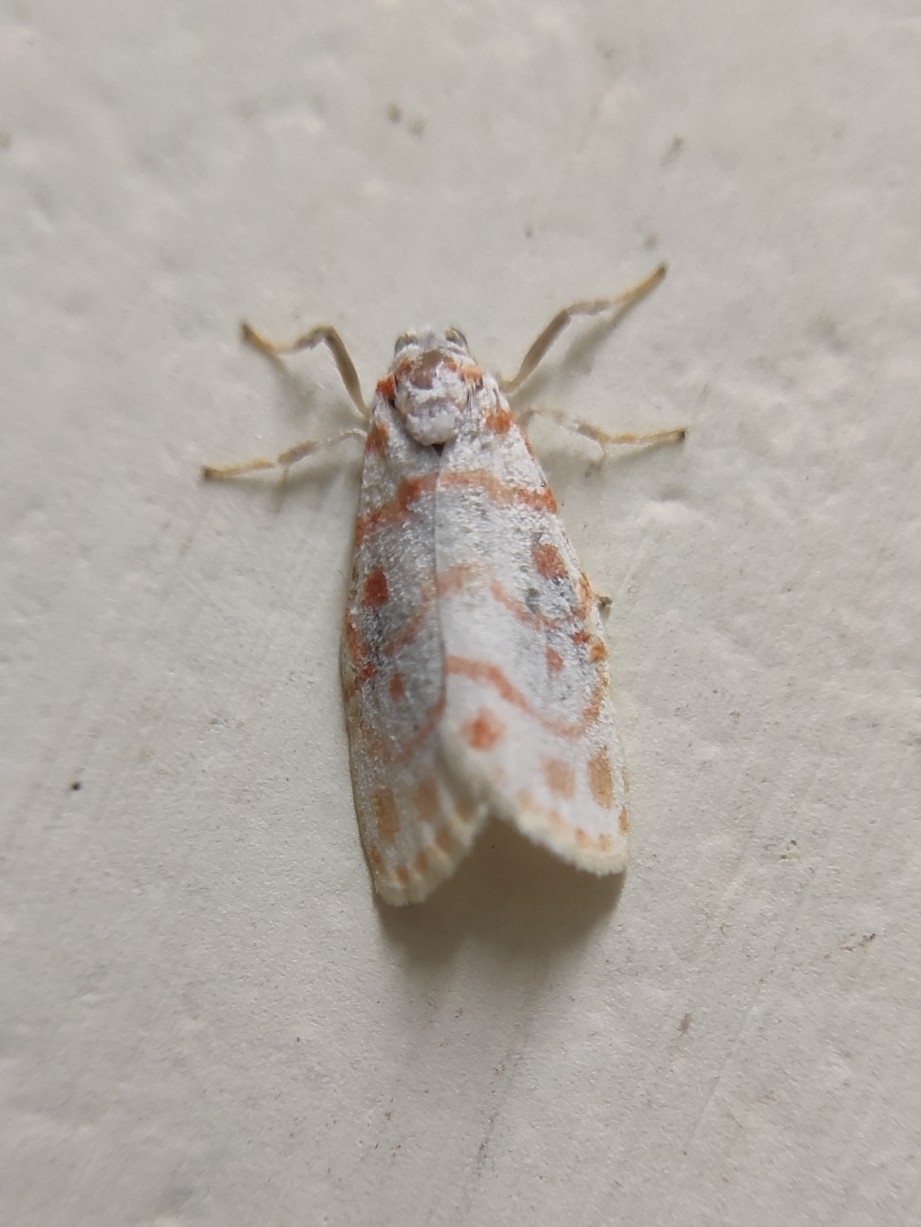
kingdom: Animalia
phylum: Arthropoda
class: Insecta
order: Lepidoptera
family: Erebidae
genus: Nephelomilta
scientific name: Nephelomilta effracta
